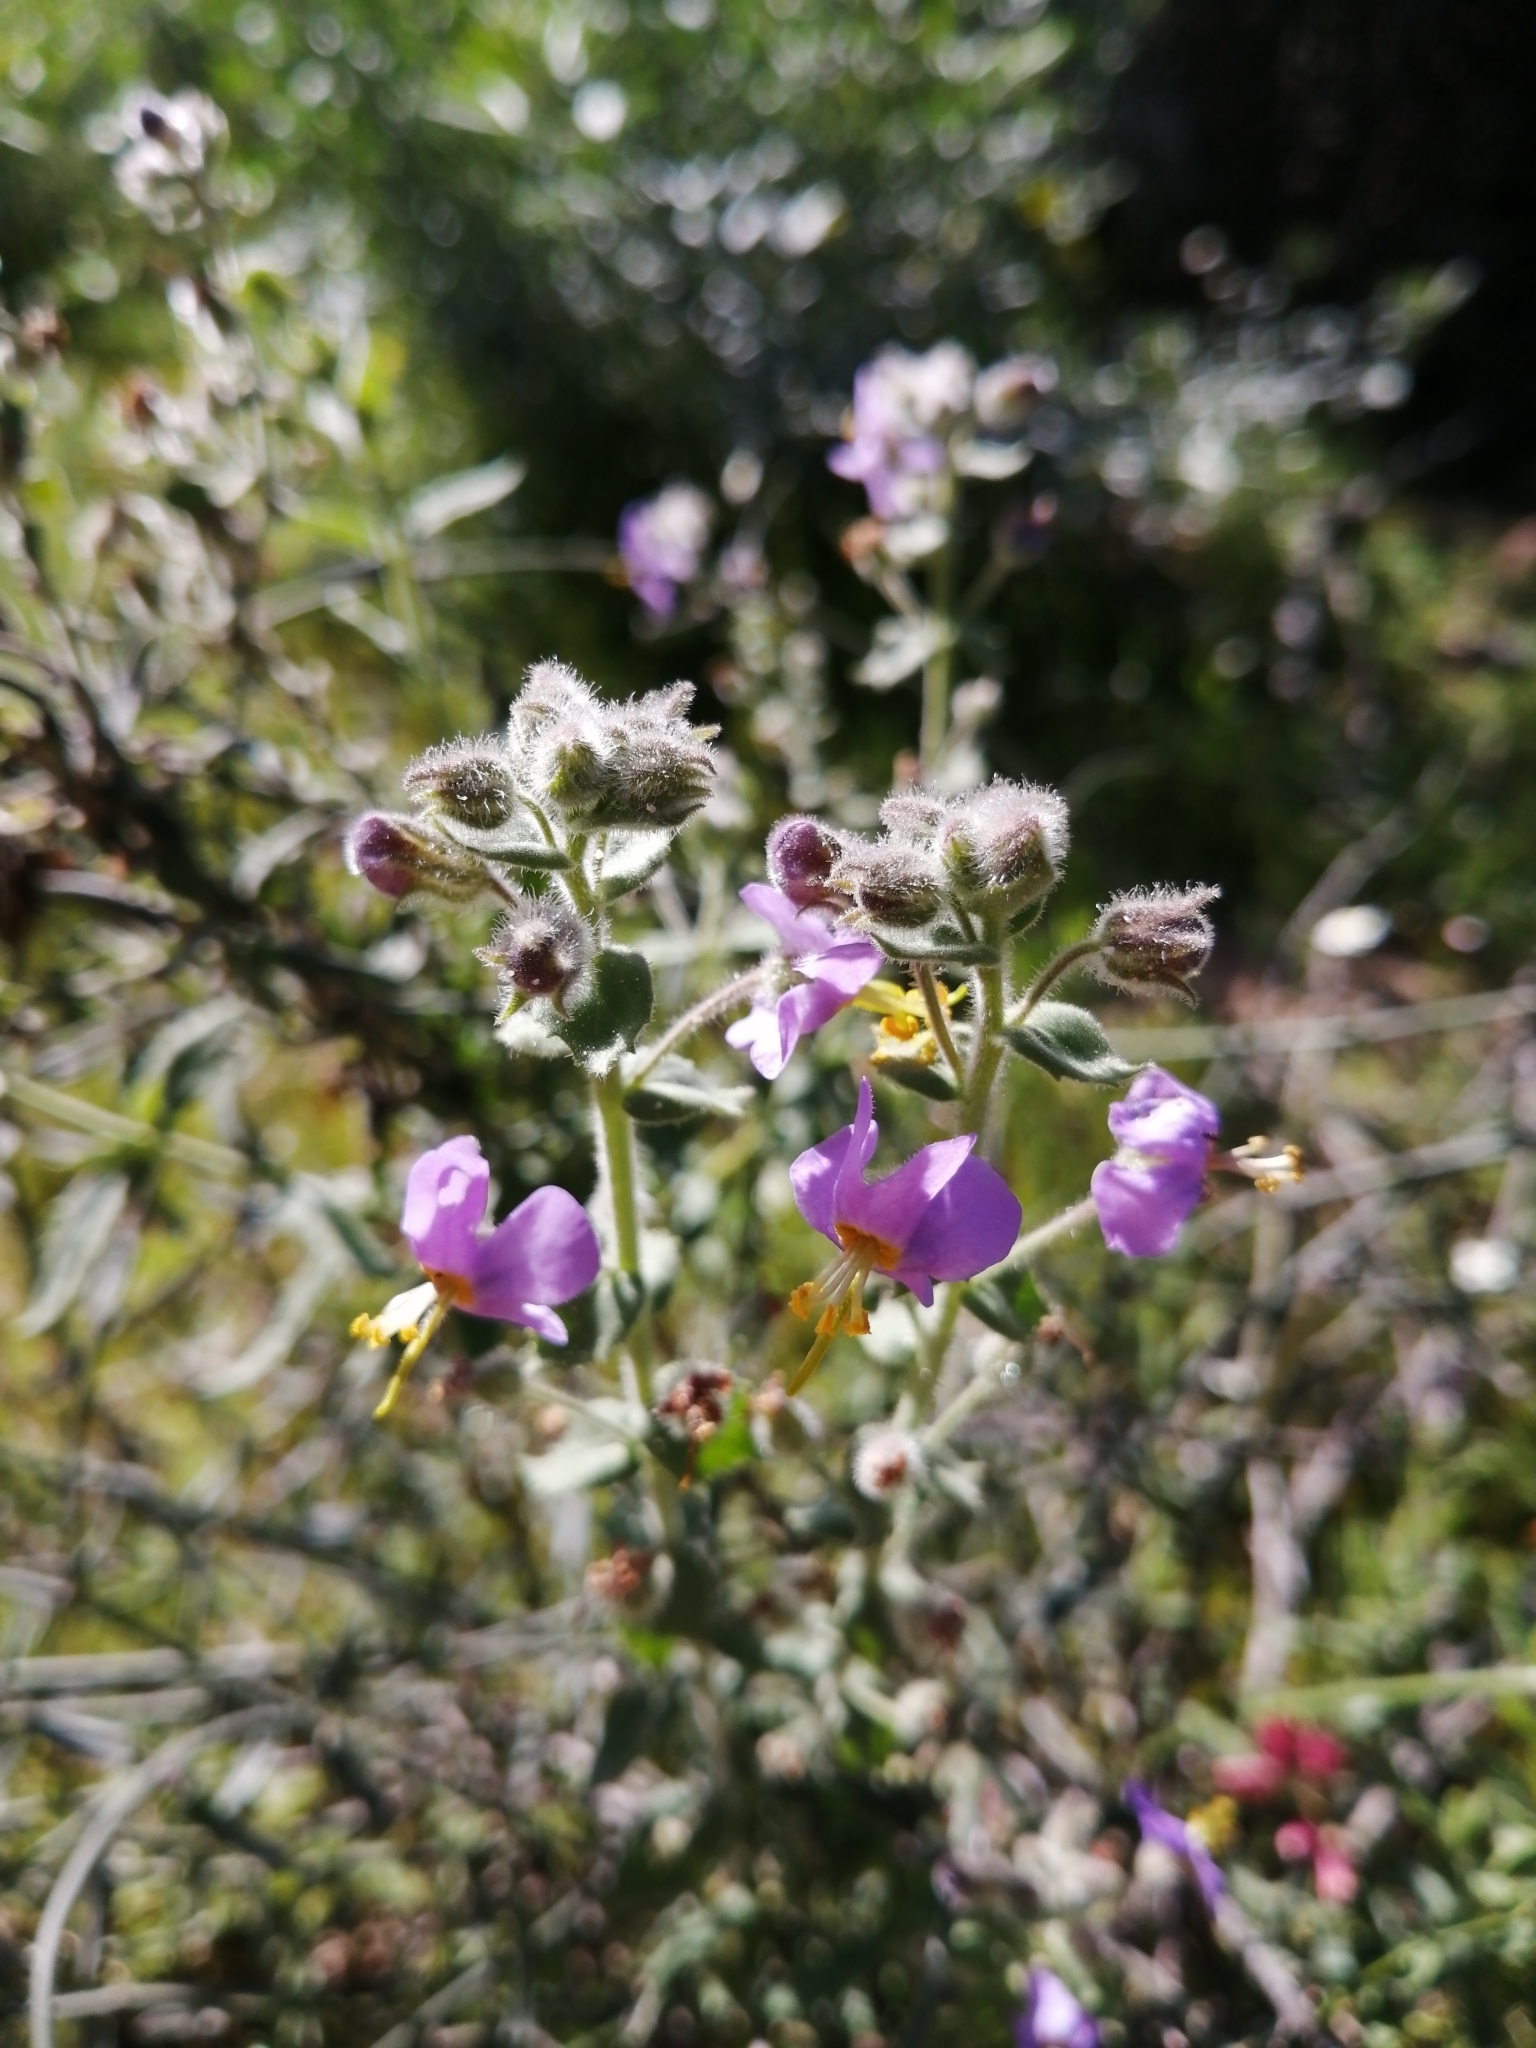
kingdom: Plantae
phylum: Tracheophyta
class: Magnoliopsida
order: Lamiales
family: Scrophulariaceae
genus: Chaenostoma
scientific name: Chaenostoma caeruleum
